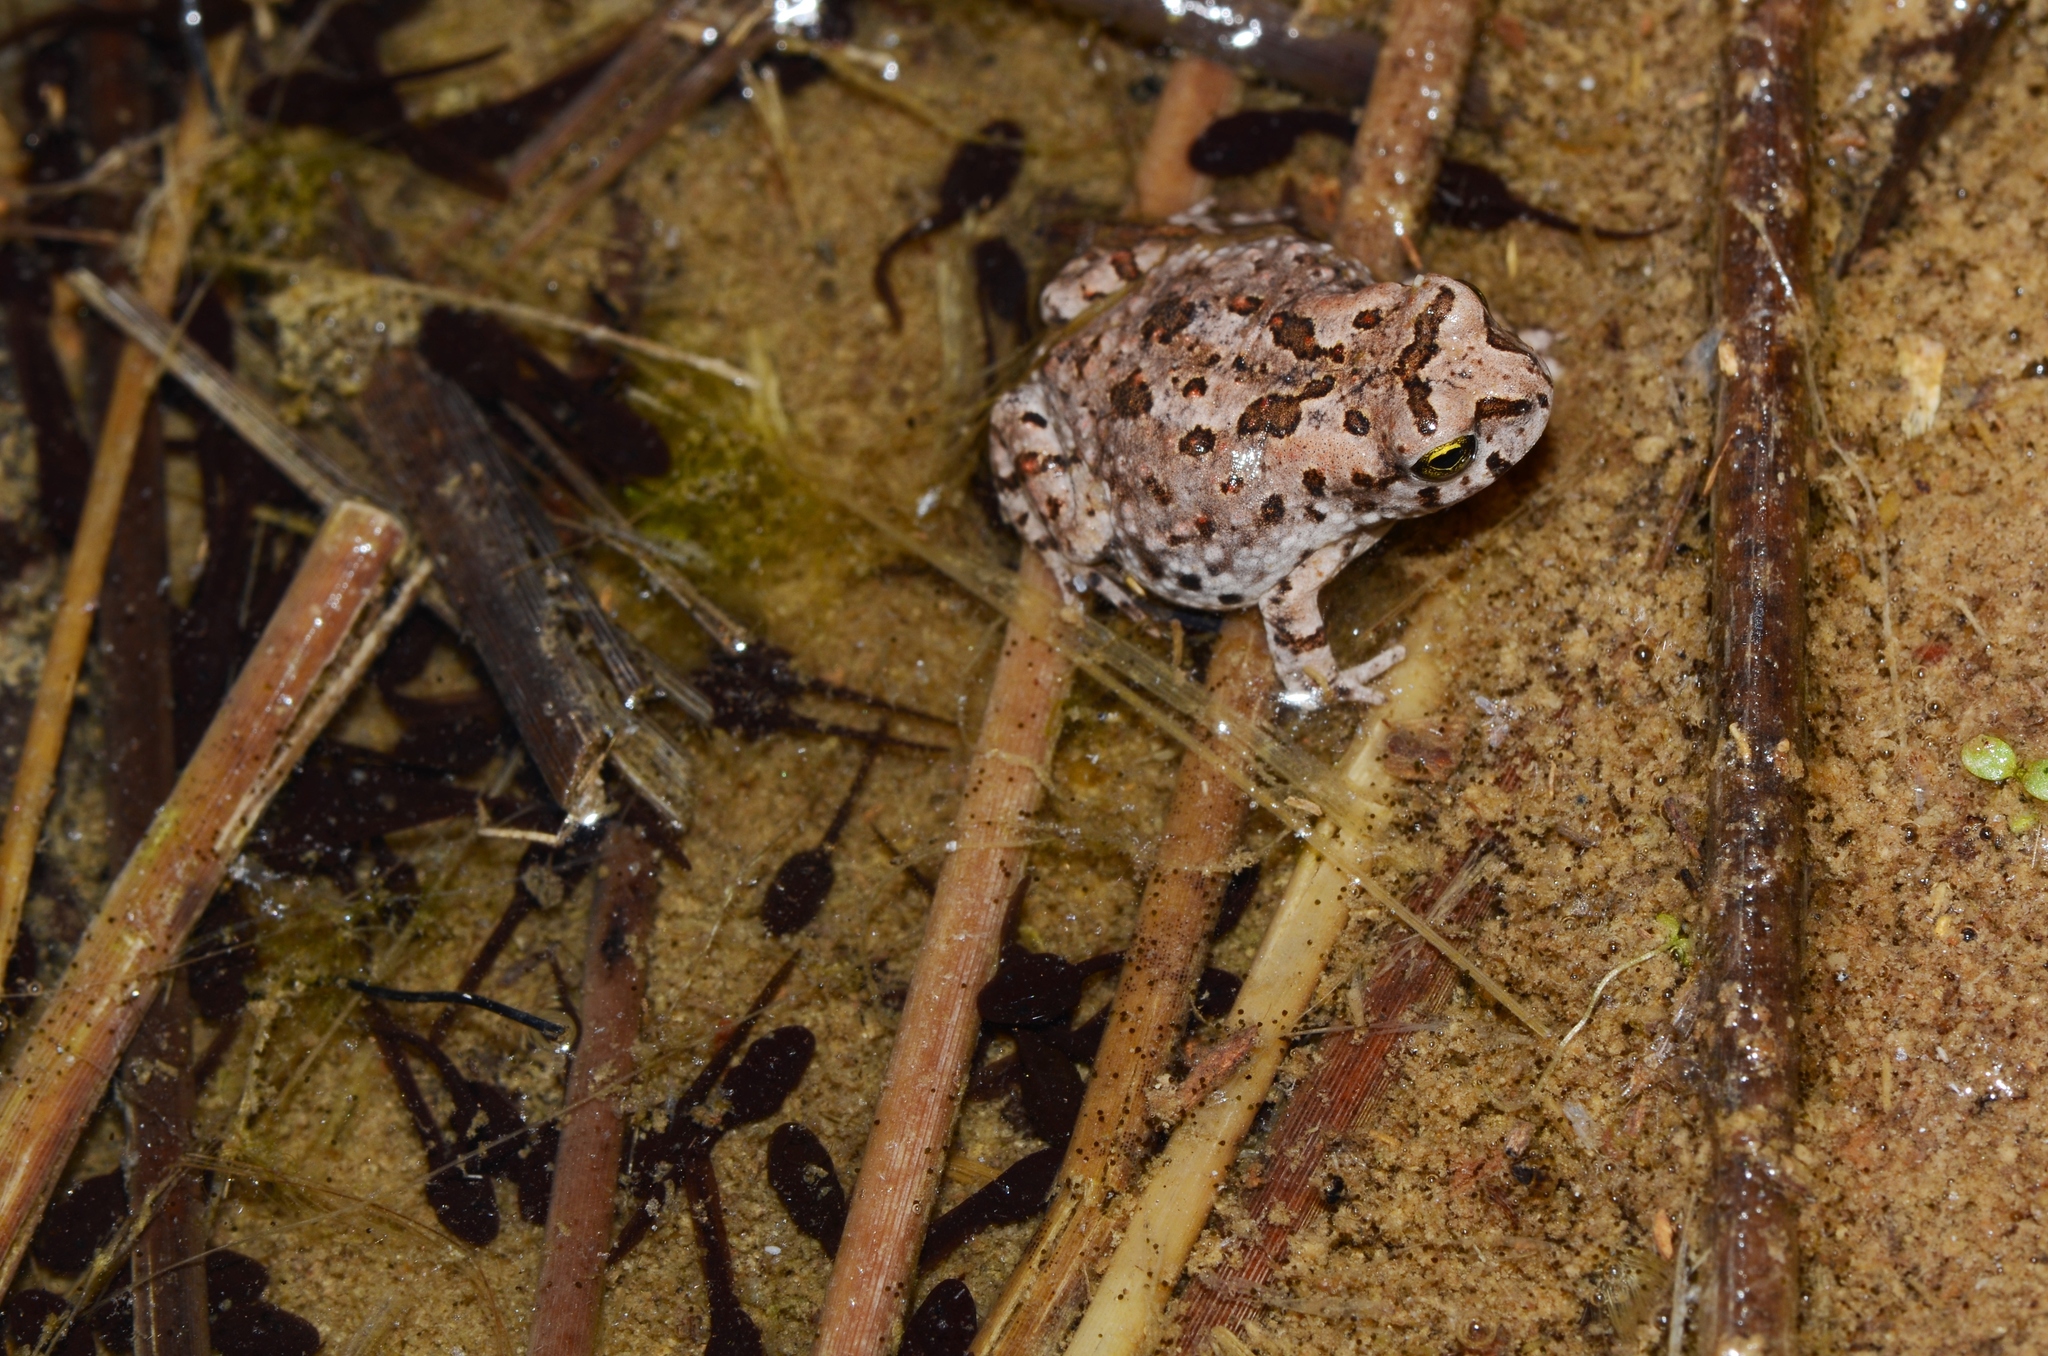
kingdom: Animalia
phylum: Chordata
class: Amphibia
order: Anura
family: Bufonidae
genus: Vandijkophrynus
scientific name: Vandijkophrynus gariepensis
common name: Gariep toad
